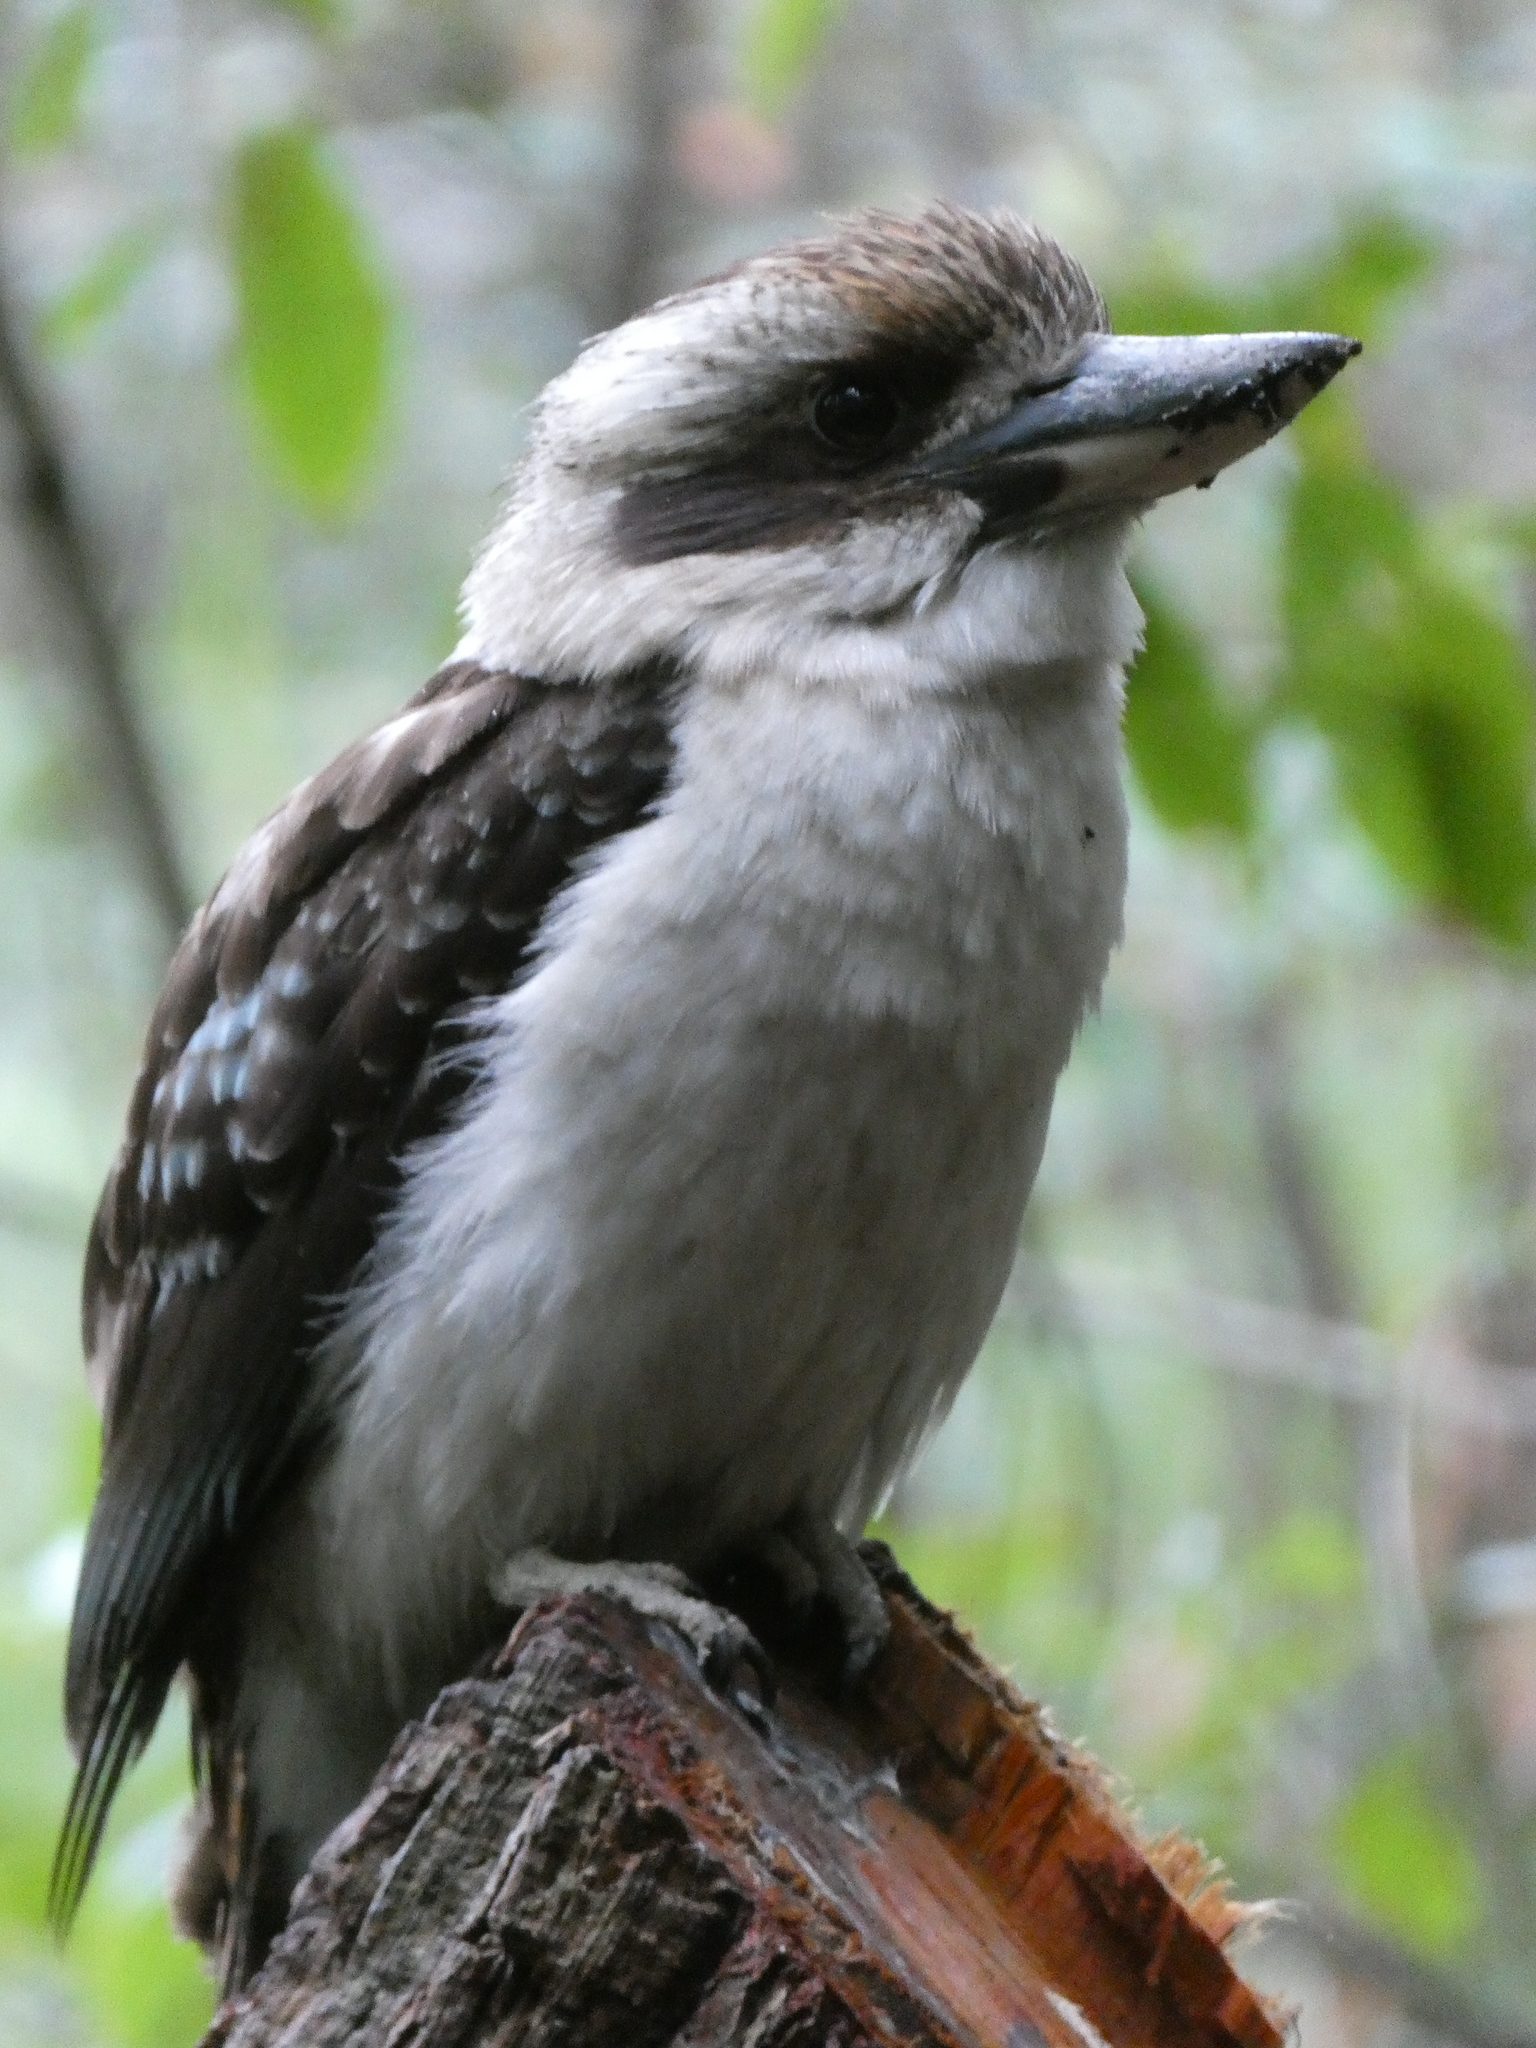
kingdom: Animalia
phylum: Chordata
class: Aves
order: Coraciiformes
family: Alcedinidae
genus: Dacelo
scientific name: Dacelo novaeguineae
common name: Laughing kookaburra
